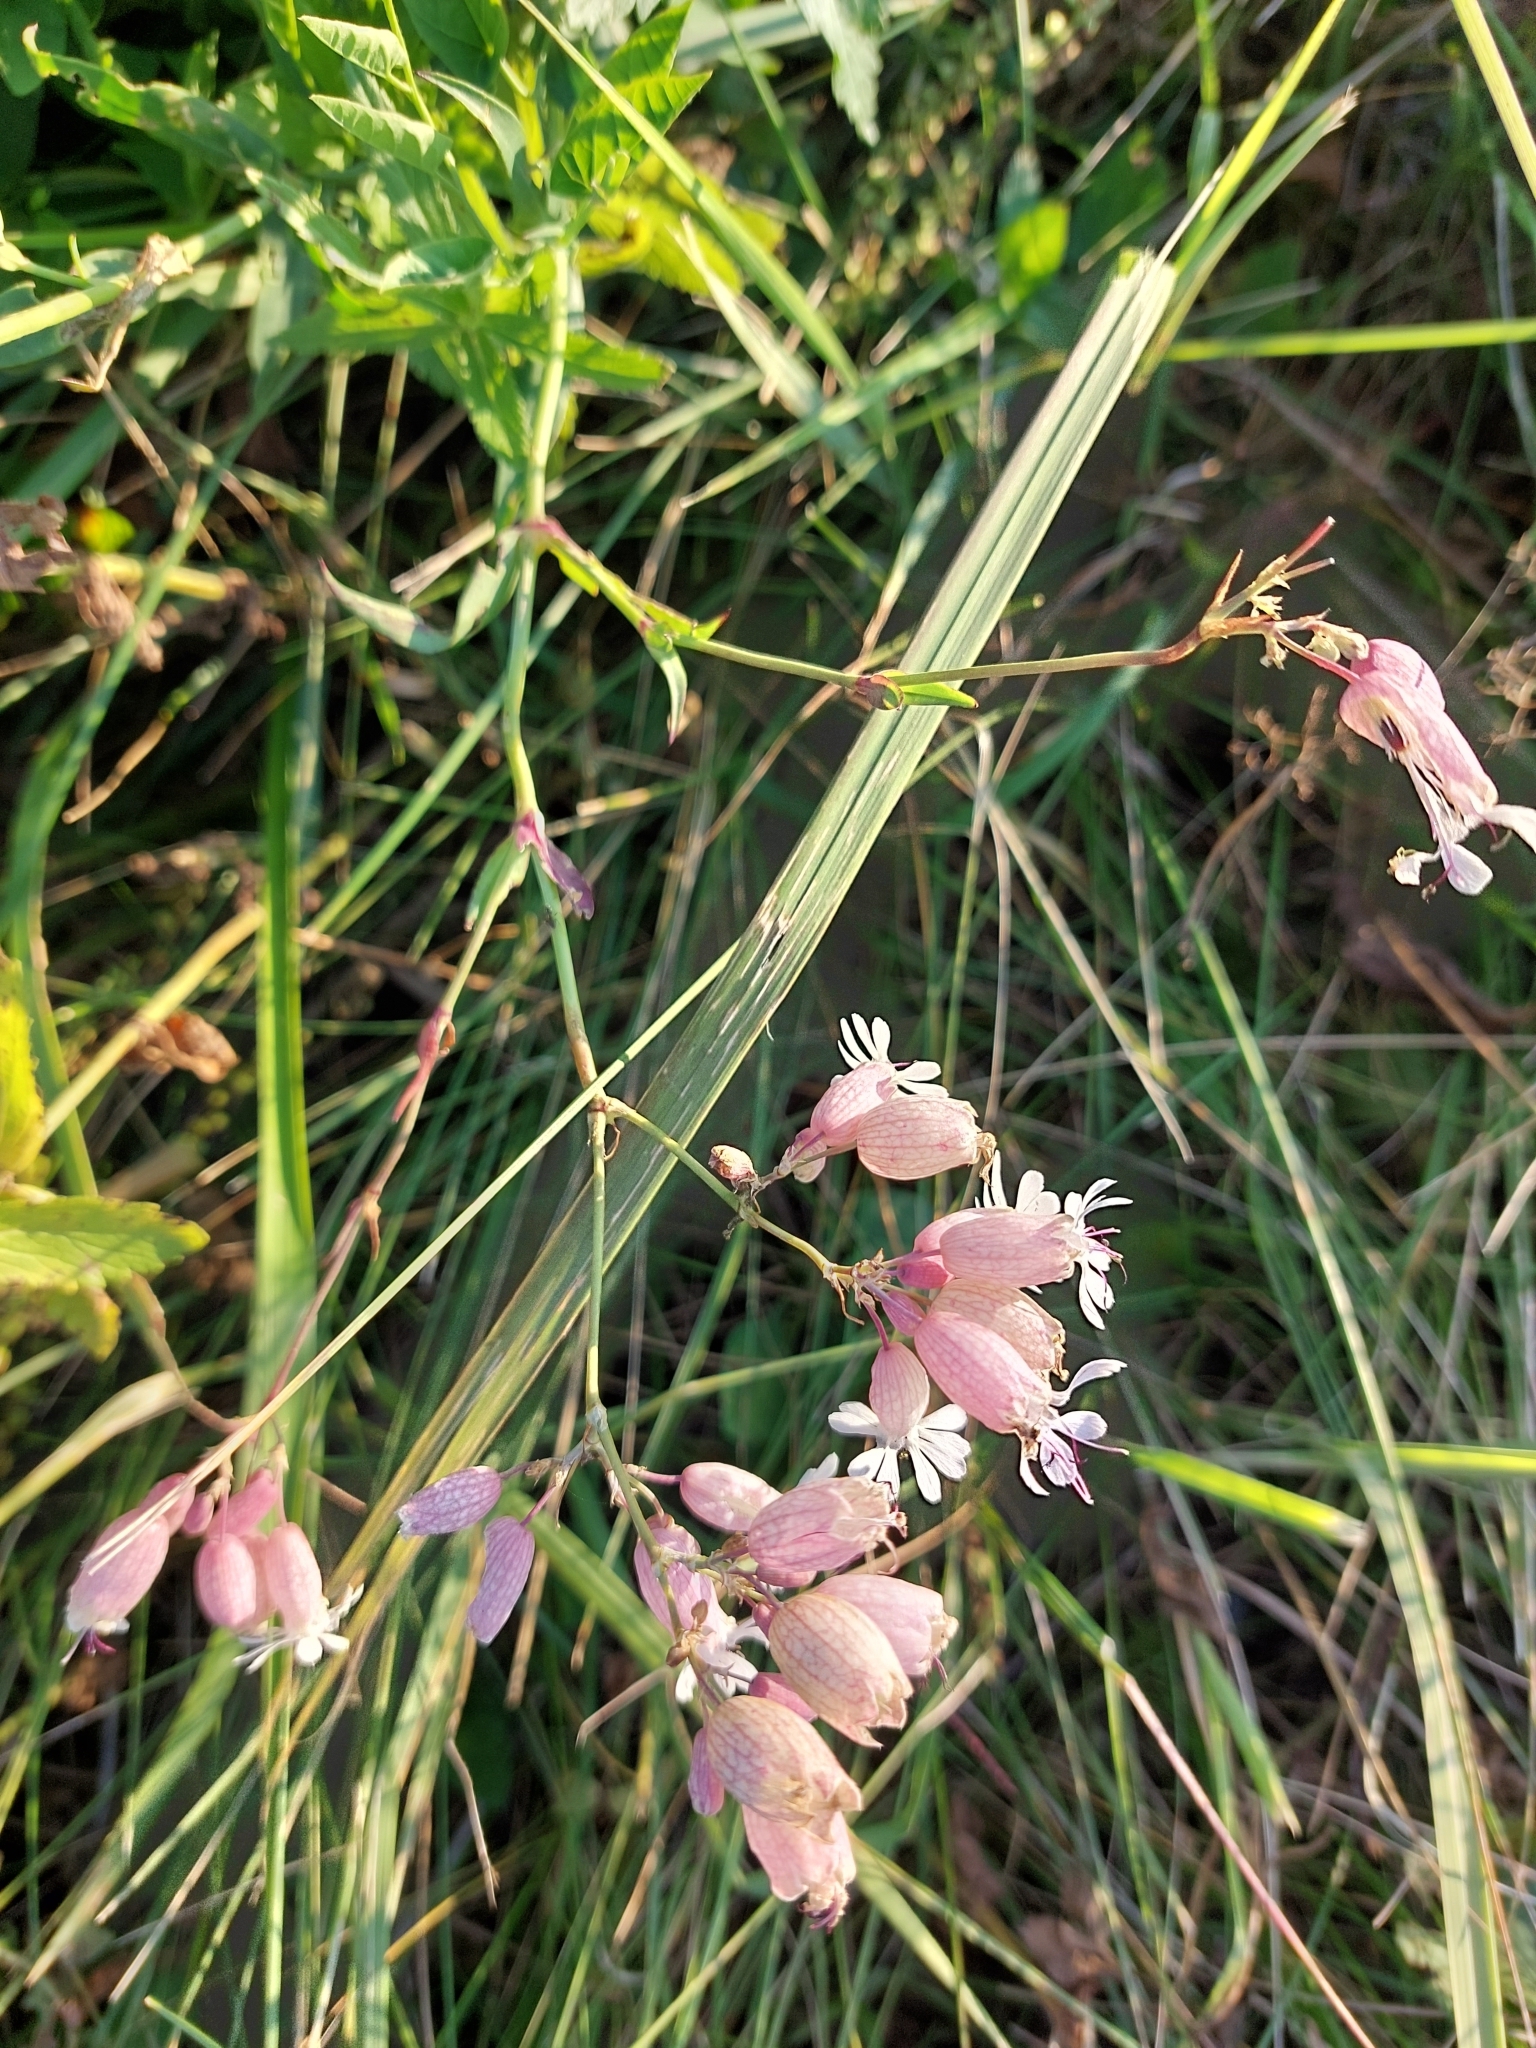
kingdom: Plantae
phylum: Tracheophyta
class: Magnoliopsida
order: Caryophyllales
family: Caryophyllaceae
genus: Silene
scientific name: Silene vulgaris
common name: Bladder campion
